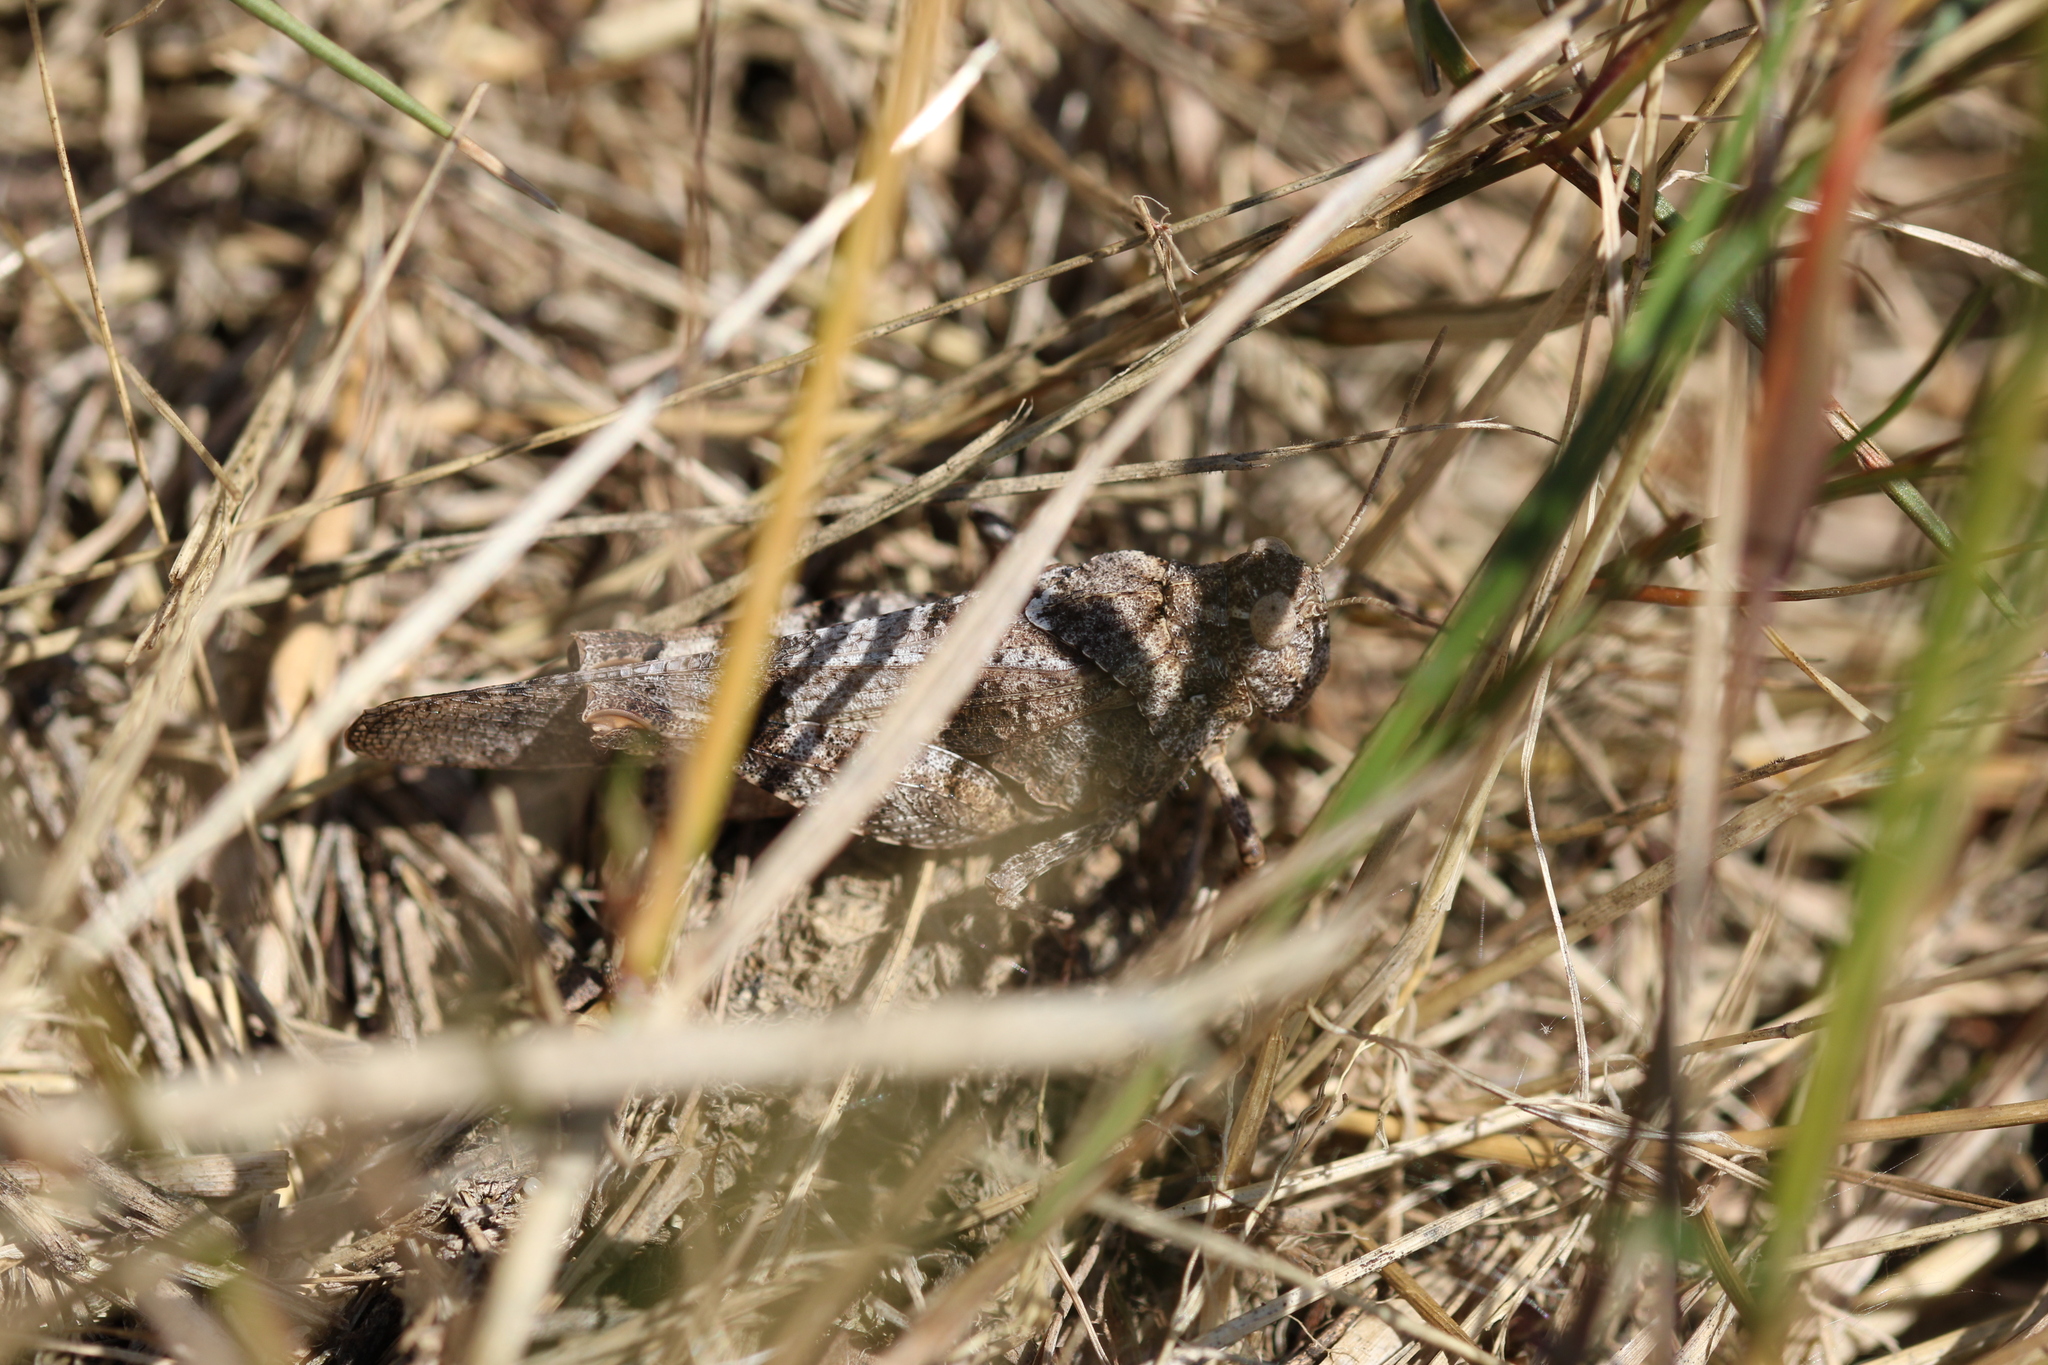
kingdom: Animalia
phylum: Arthropoda
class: Insecta
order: Orthoptera
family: Acrididae
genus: Oedipoda
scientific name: Oedipoda caerulescens
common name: Blue-winged grasshopper
